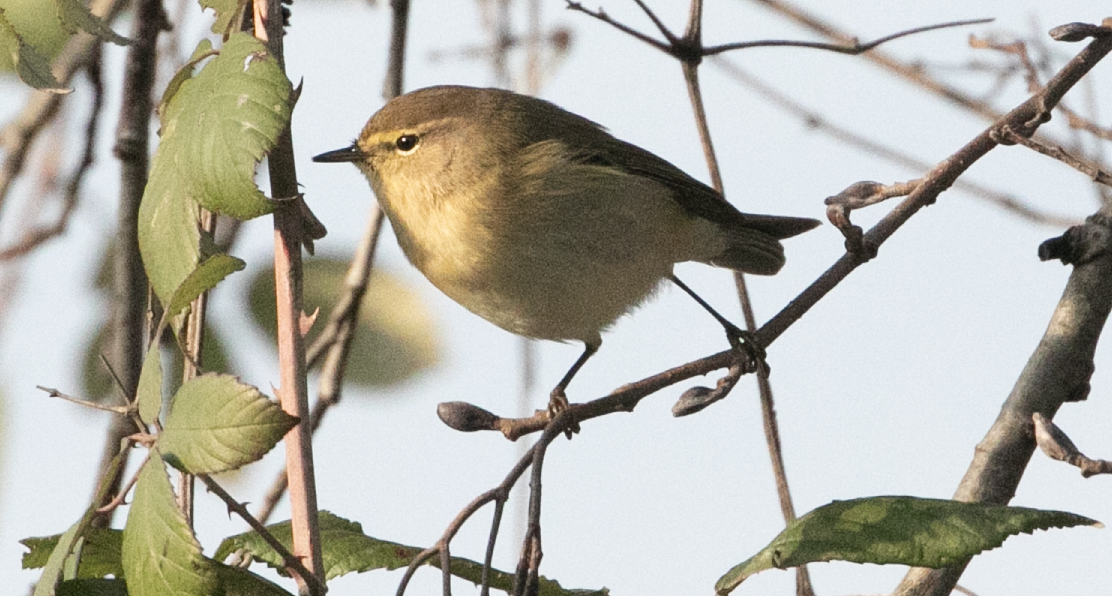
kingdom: Animalia
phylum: Chordata
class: Aves
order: Passeriformes
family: Phylloscopidae
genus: Phylloscopus
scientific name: Phylloscopus collybita
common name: Common chiffchaff
